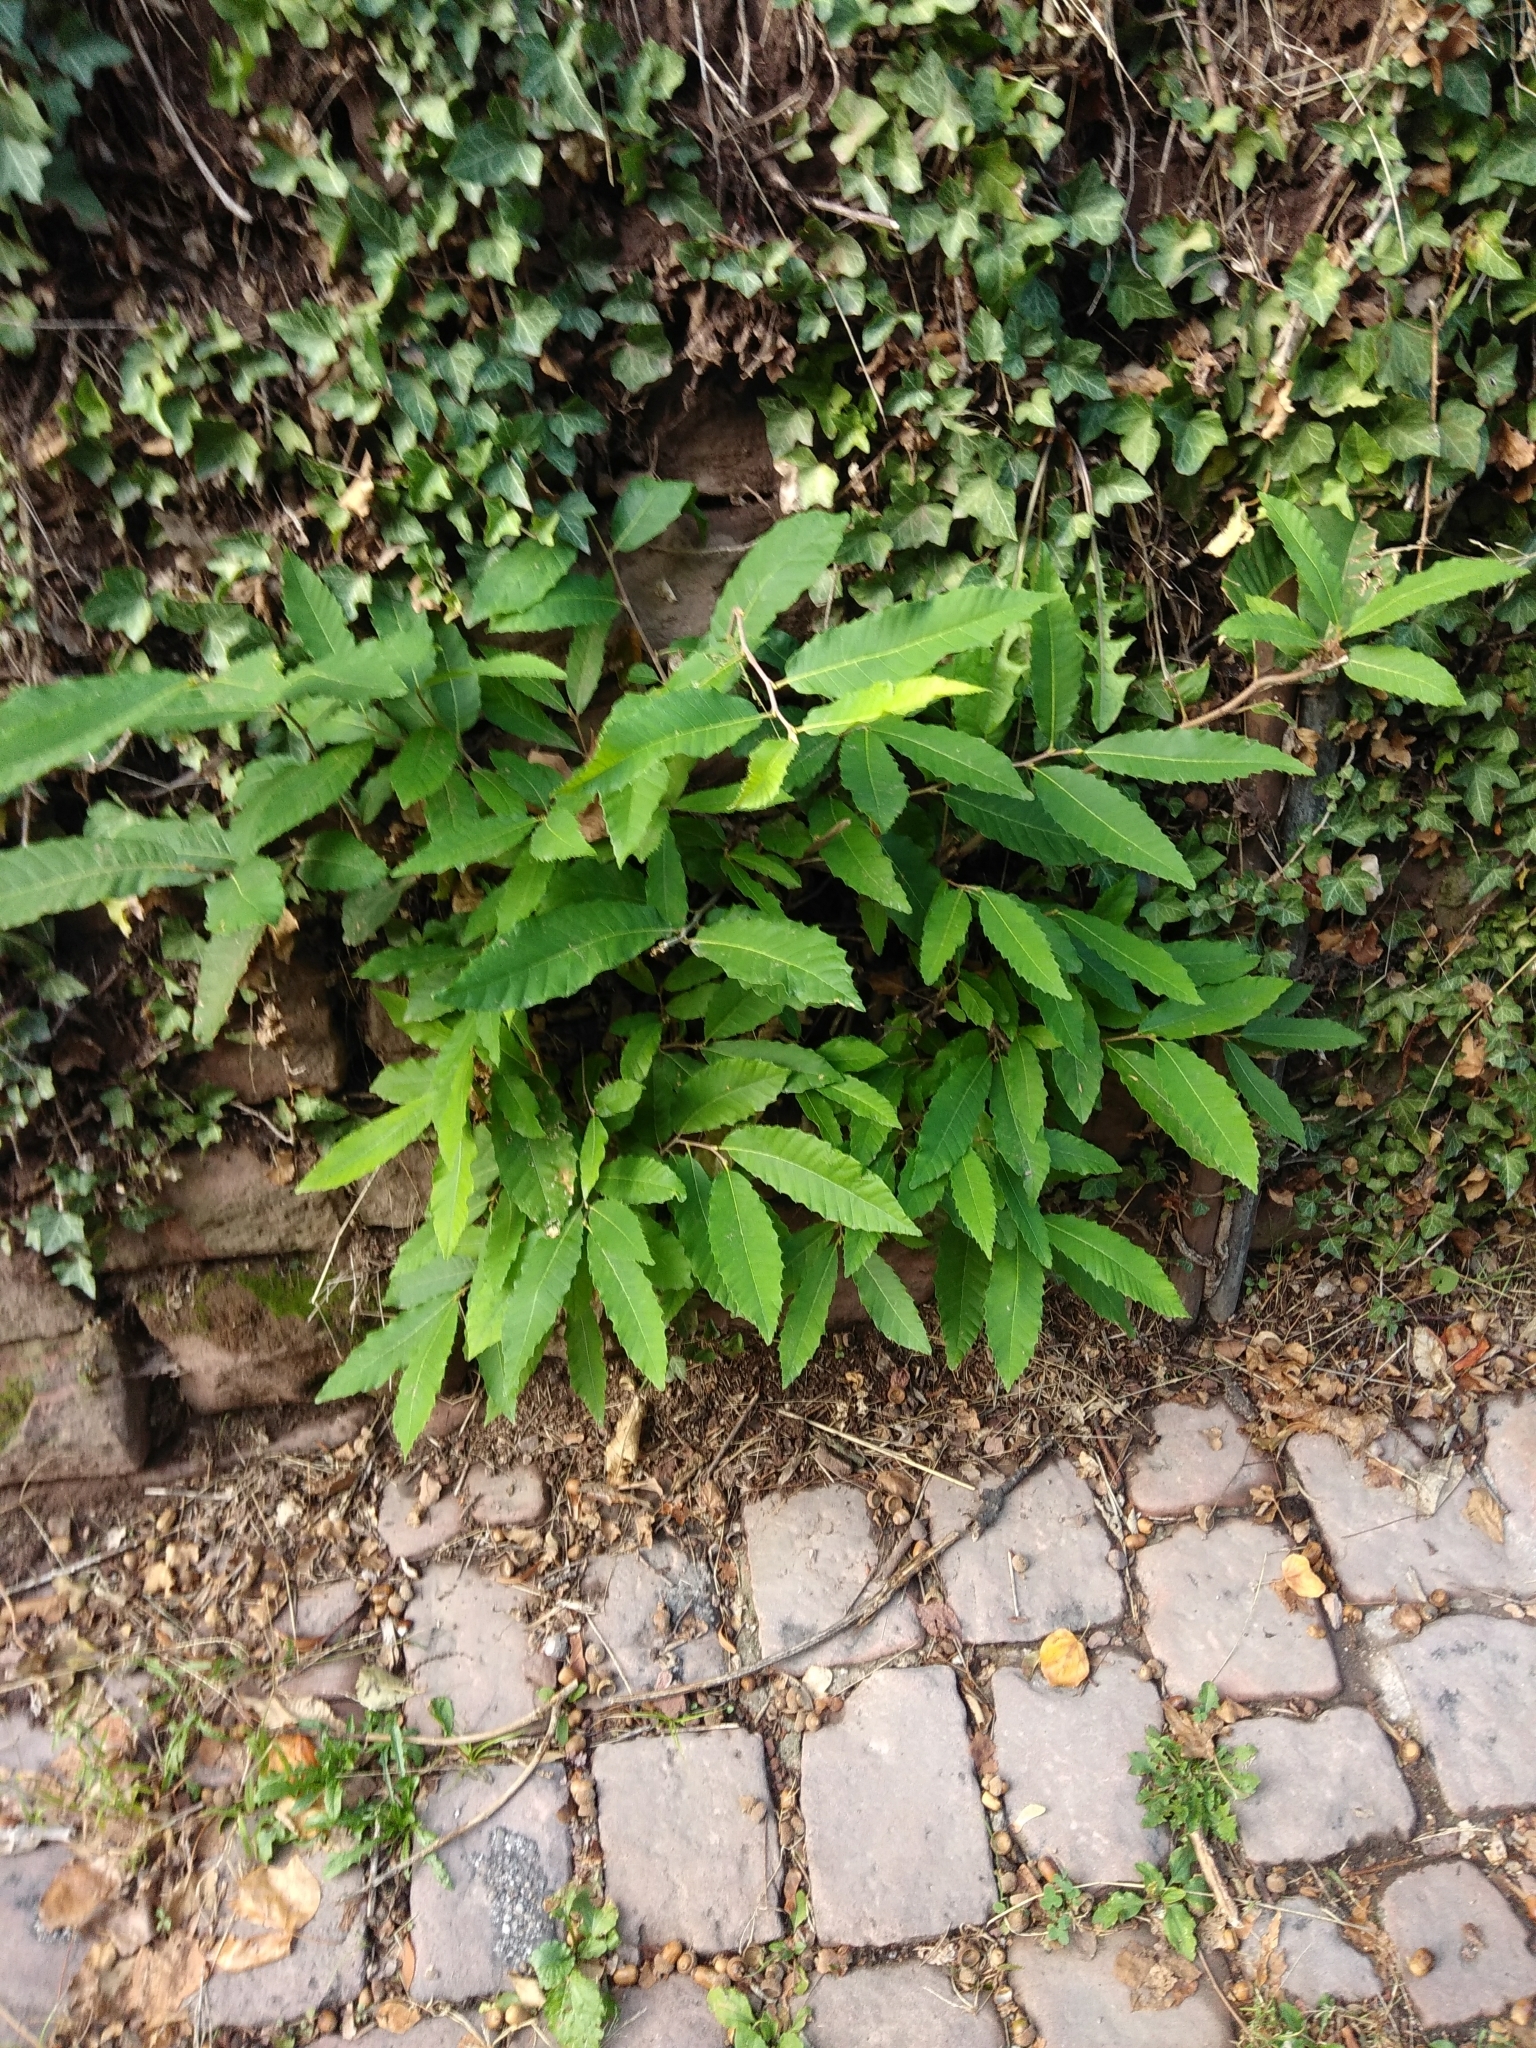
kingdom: Plantae
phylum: Tracheophyta
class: Magnoliopsida
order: Fagales
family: Fagaceae
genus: Castanea
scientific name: Castanea sativa
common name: Sweet chestnut
